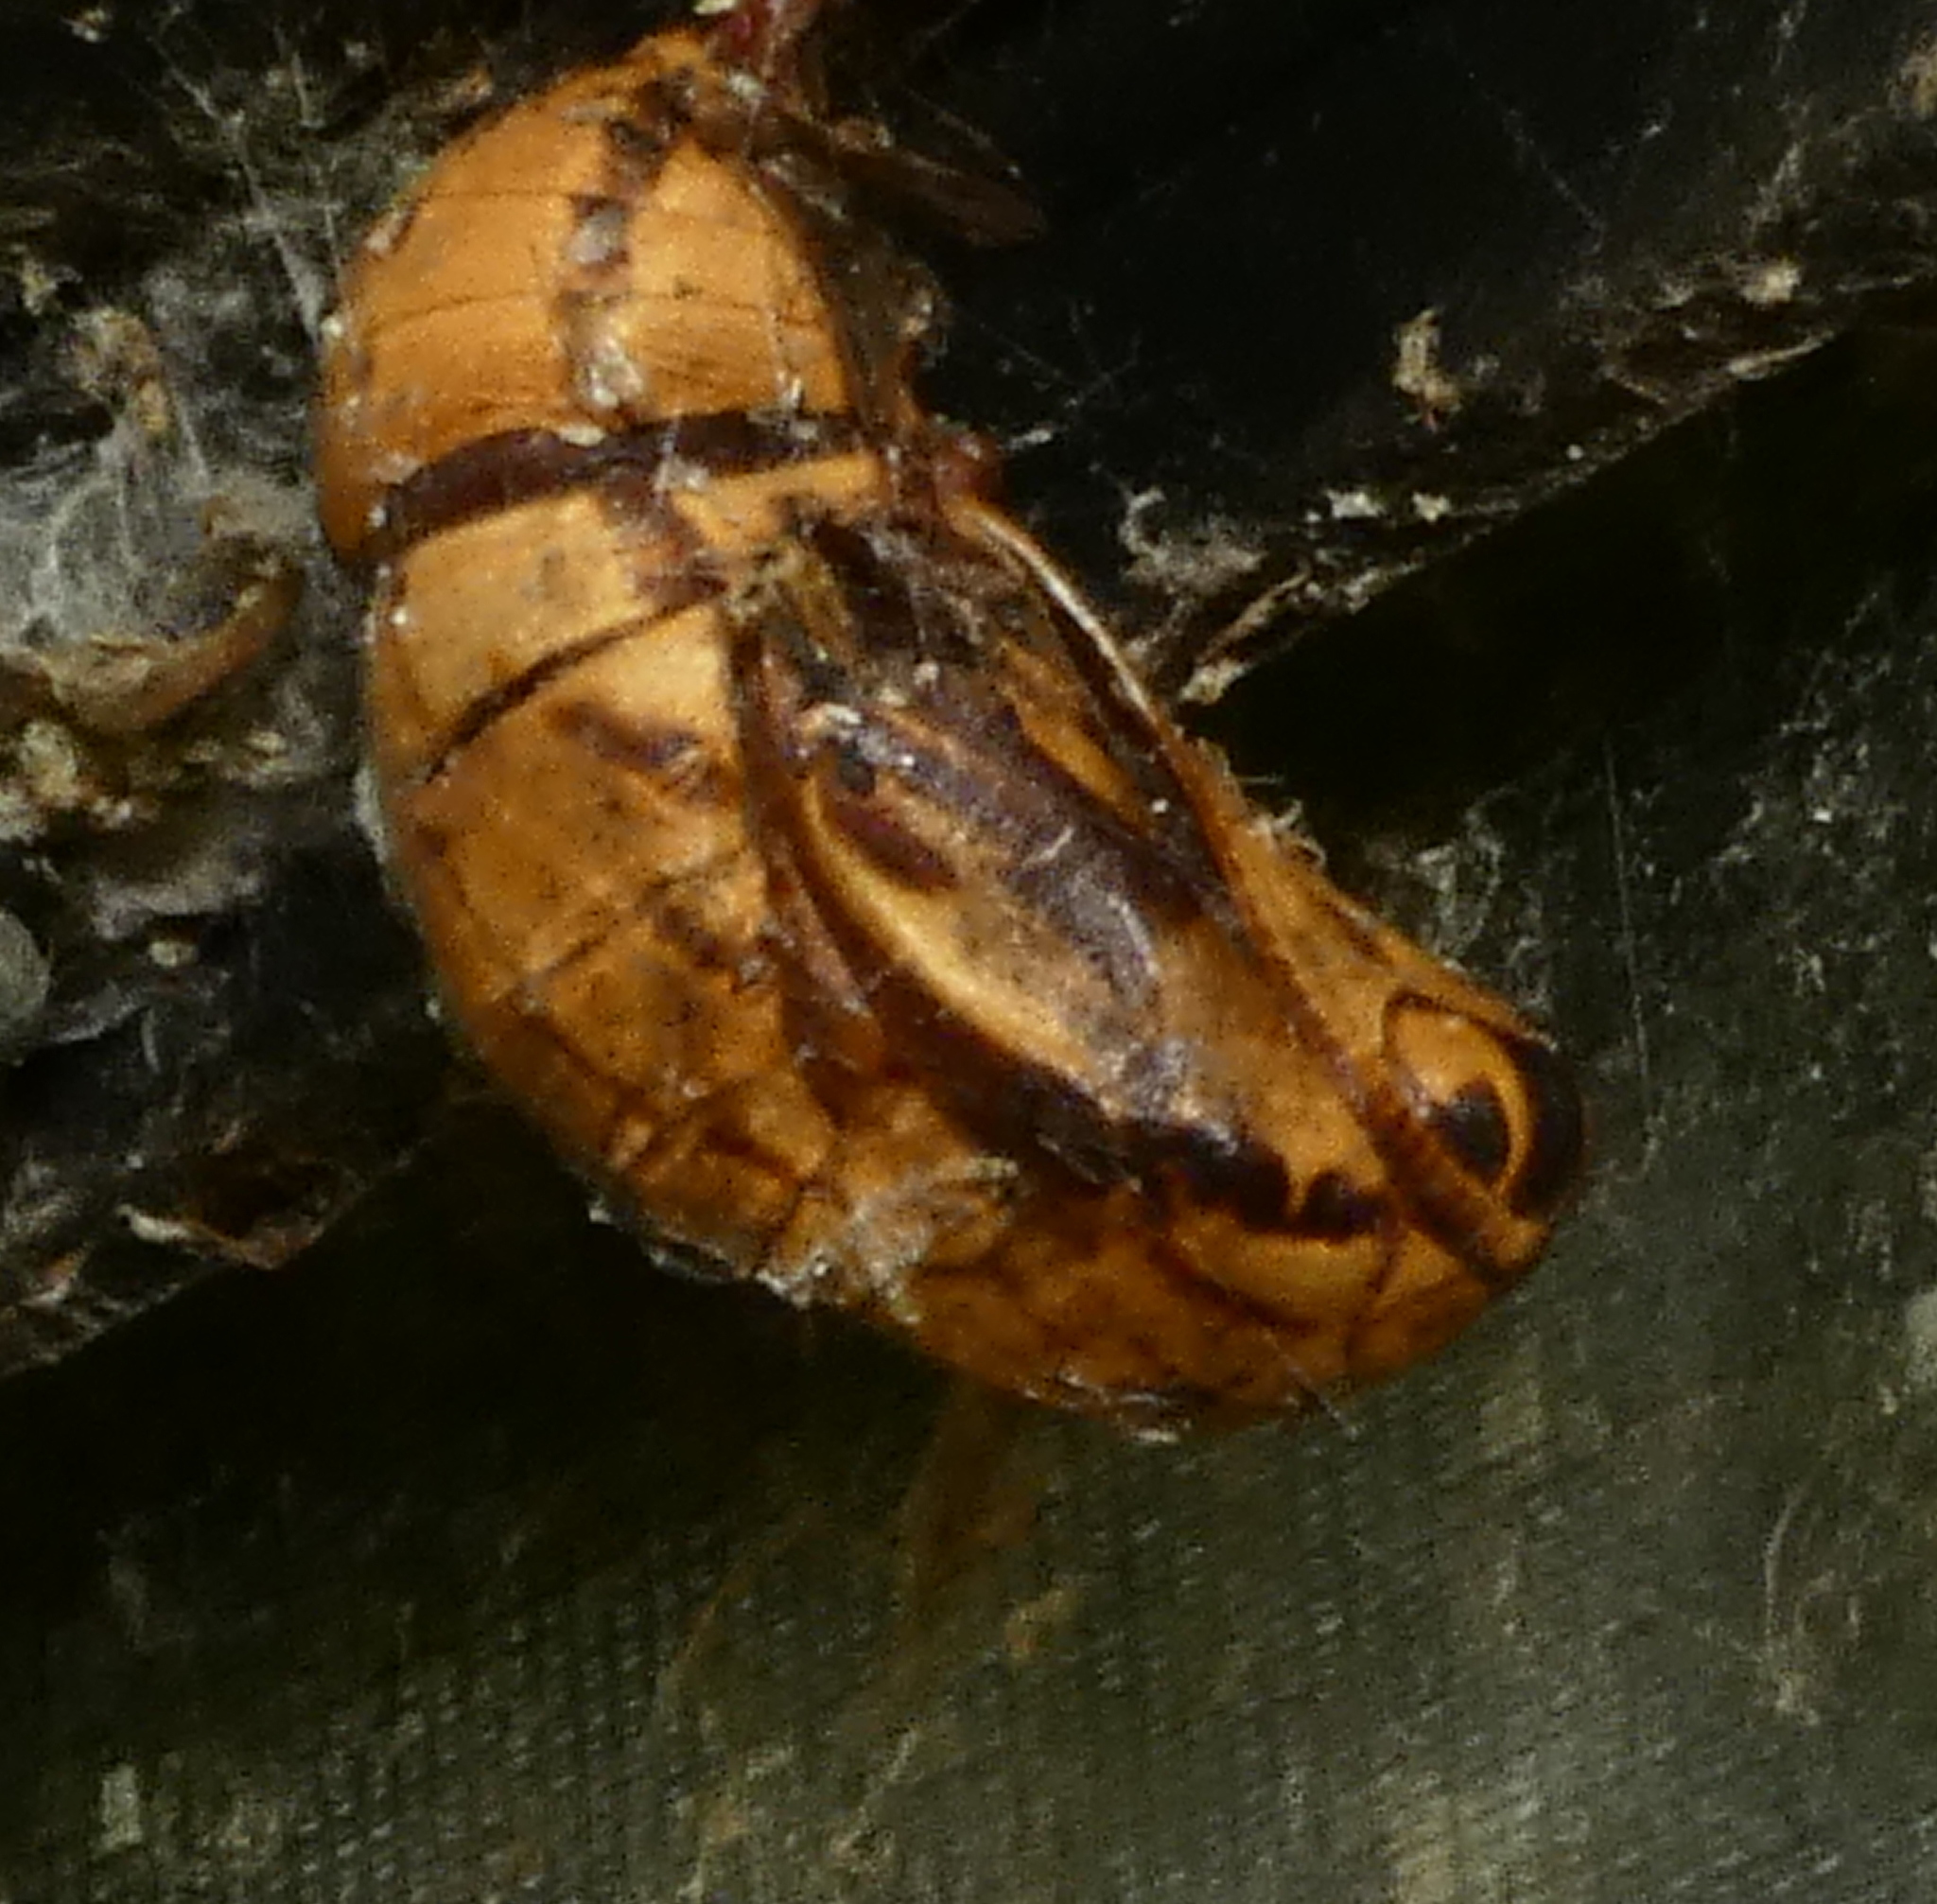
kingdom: Animalia
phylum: Arthropoda
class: Insecta
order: Lepidoptera
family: Nymphalidae
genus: Brassolis
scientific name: Brassolis sophorae
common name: Coconut caterpillar
